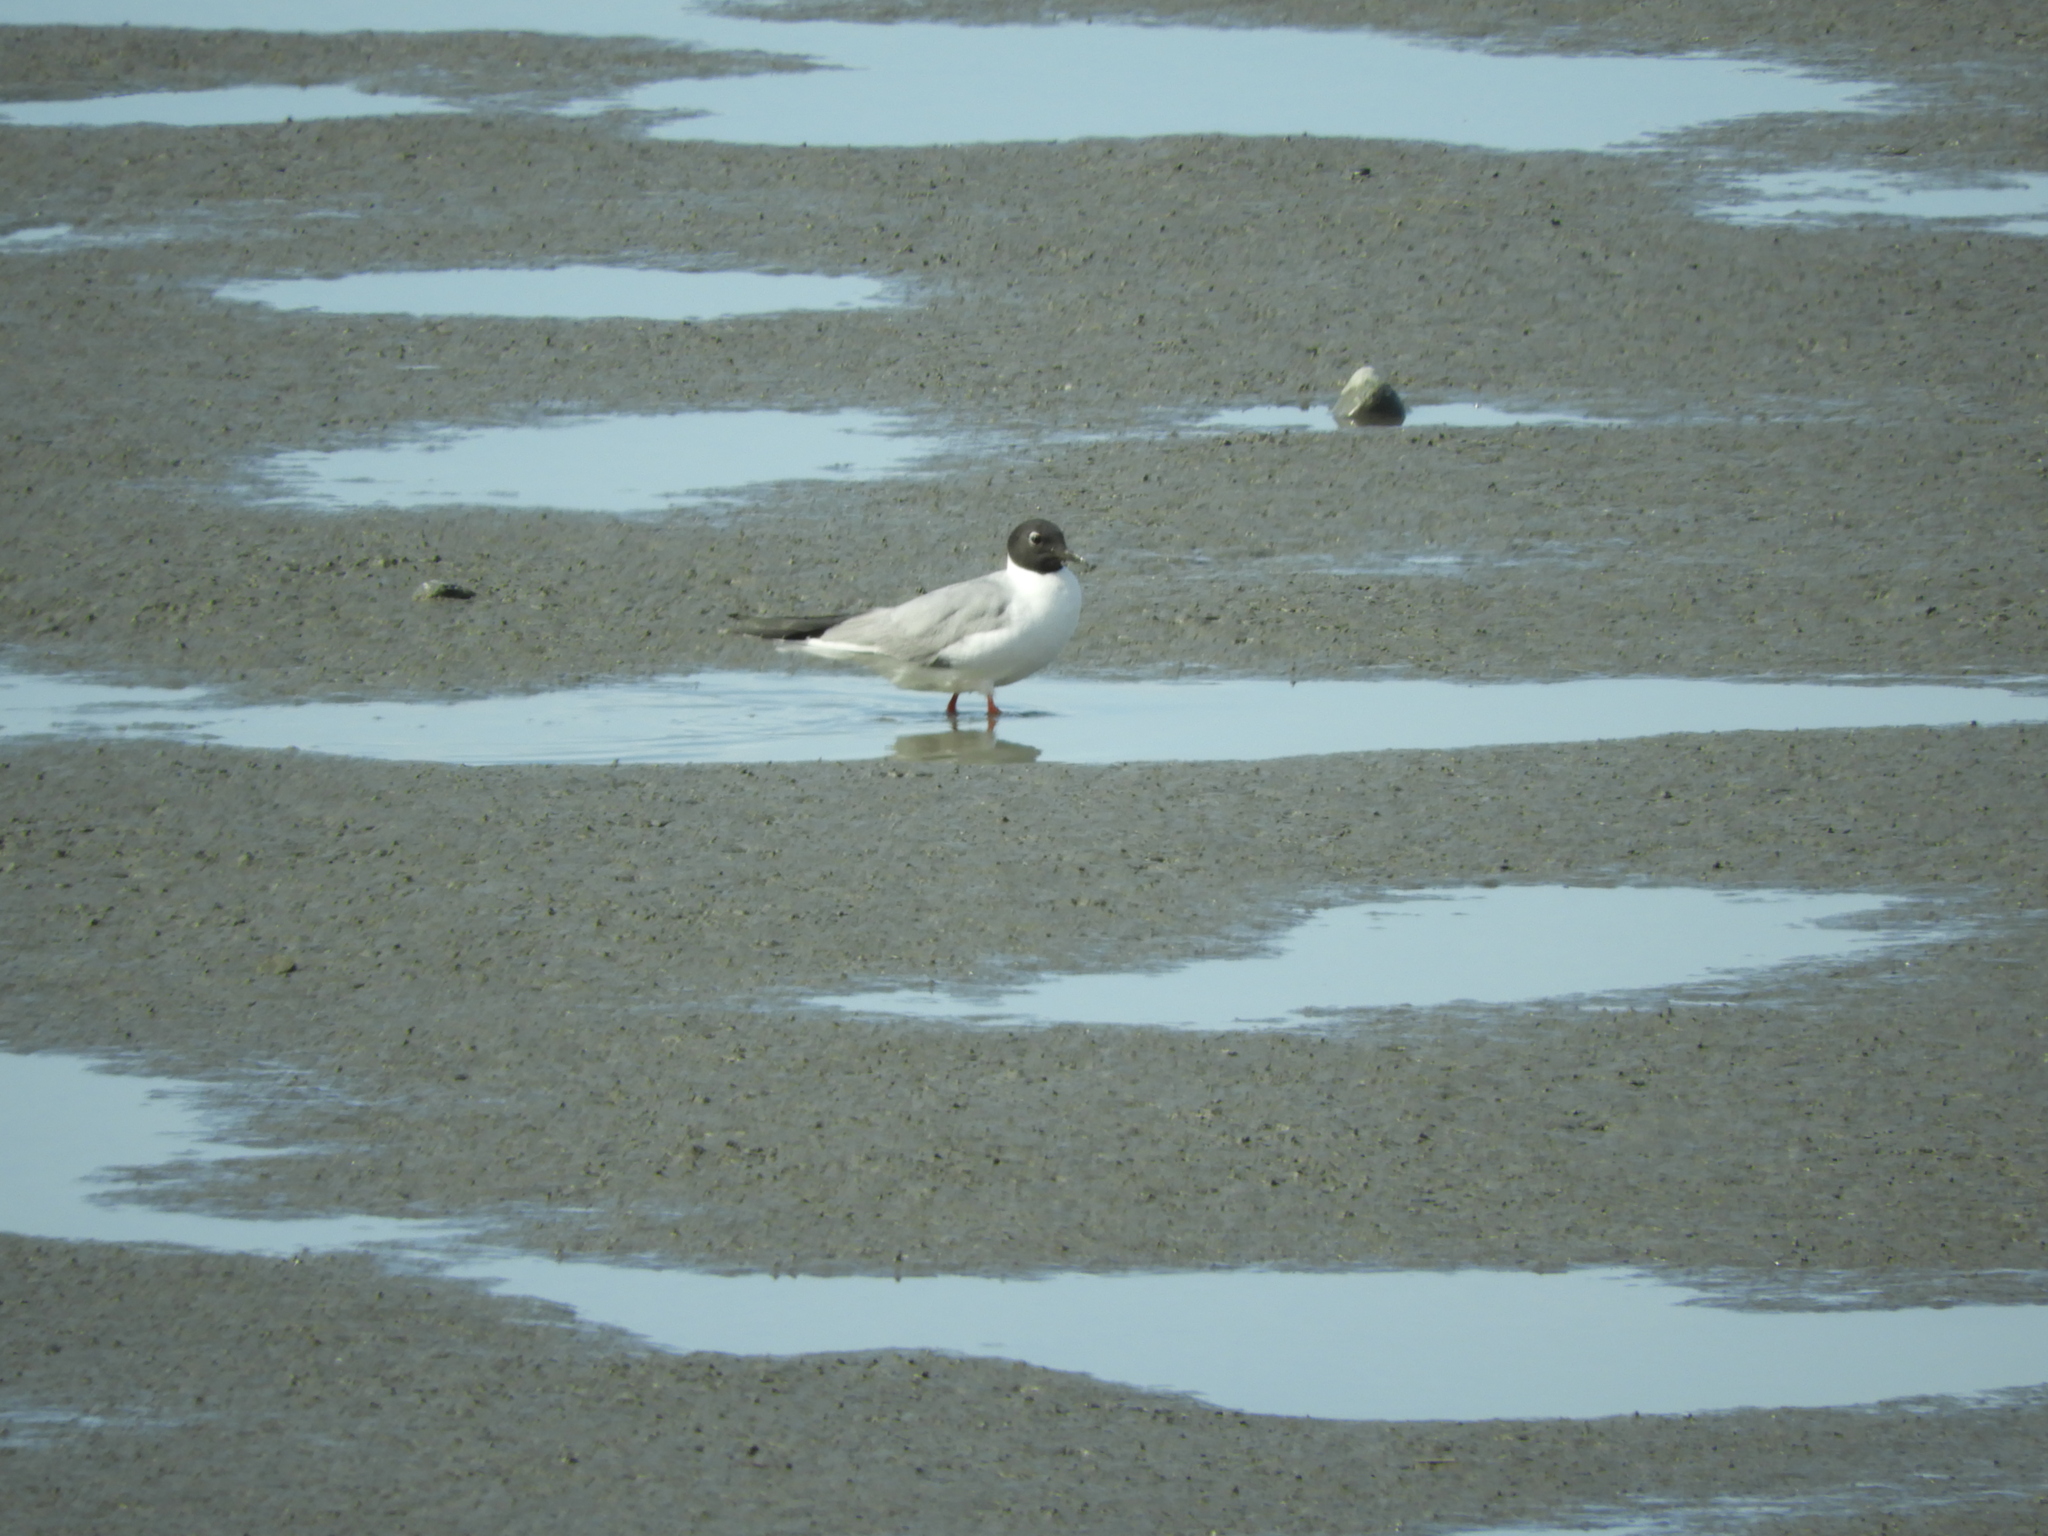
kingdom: Animalia
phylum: Chordata
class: Aves
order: Charadriiformes
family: Laridae
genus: Chroicocephalus
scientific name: Chroicocephalus philadelphia
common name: Bonaparte's gull
